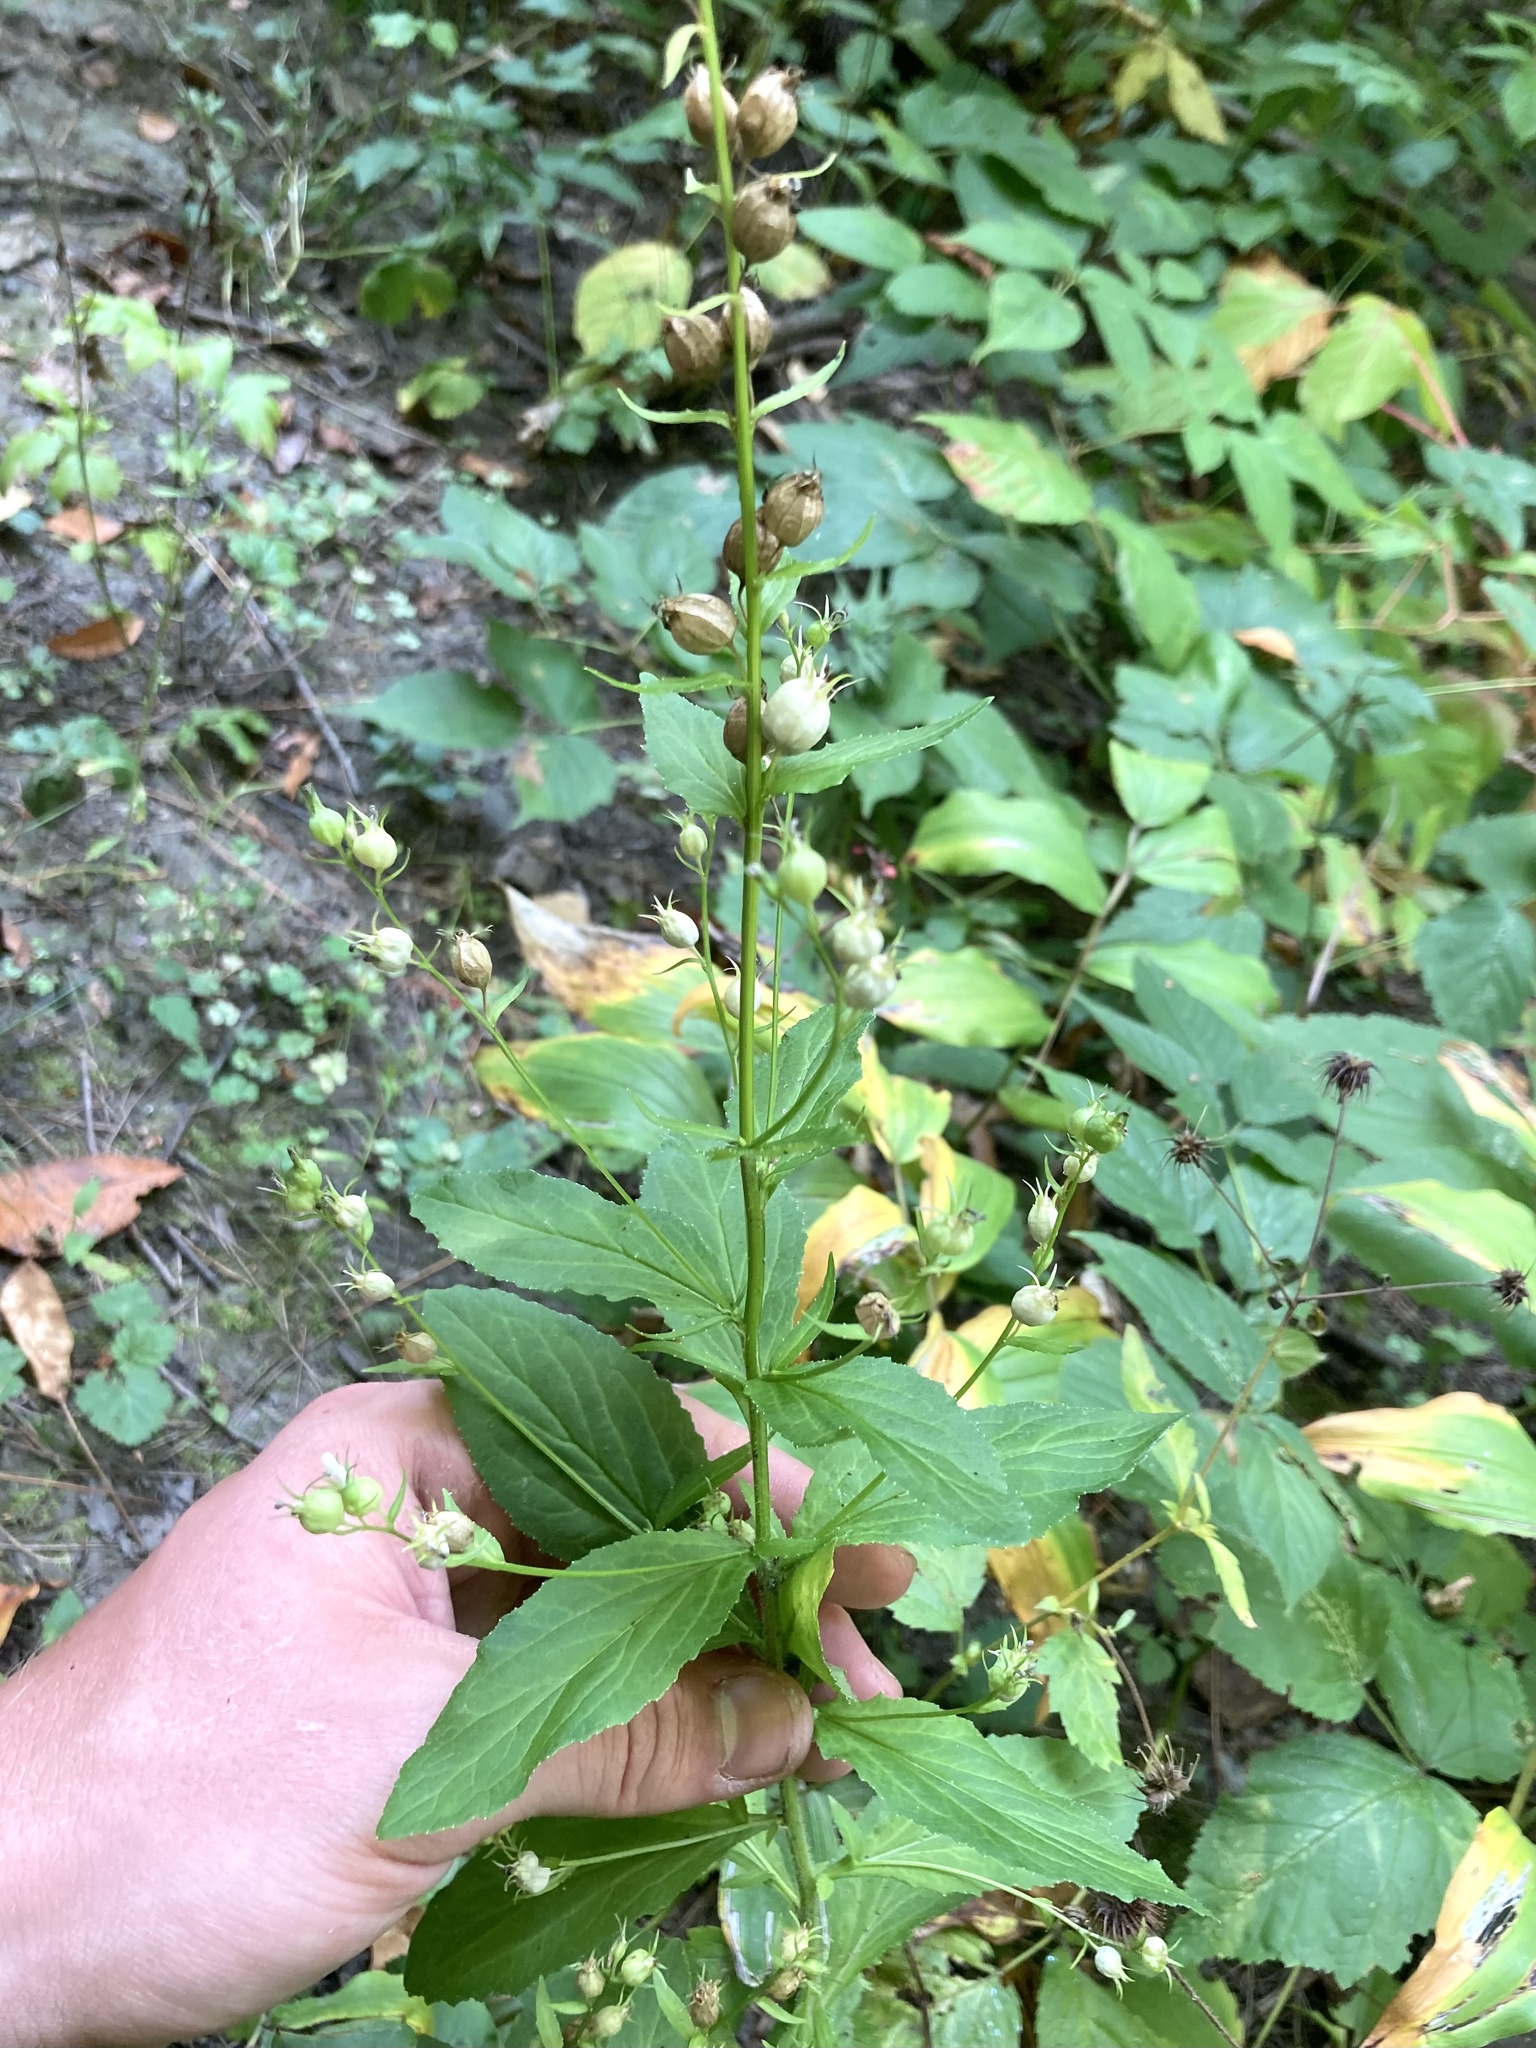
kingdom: Plantae
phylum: Tracheophyta
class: Magnoliopsida
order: Asterales
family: Campanulaceae
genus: Lobelia
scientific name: Lobelia inflata
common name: Indian tobacco
